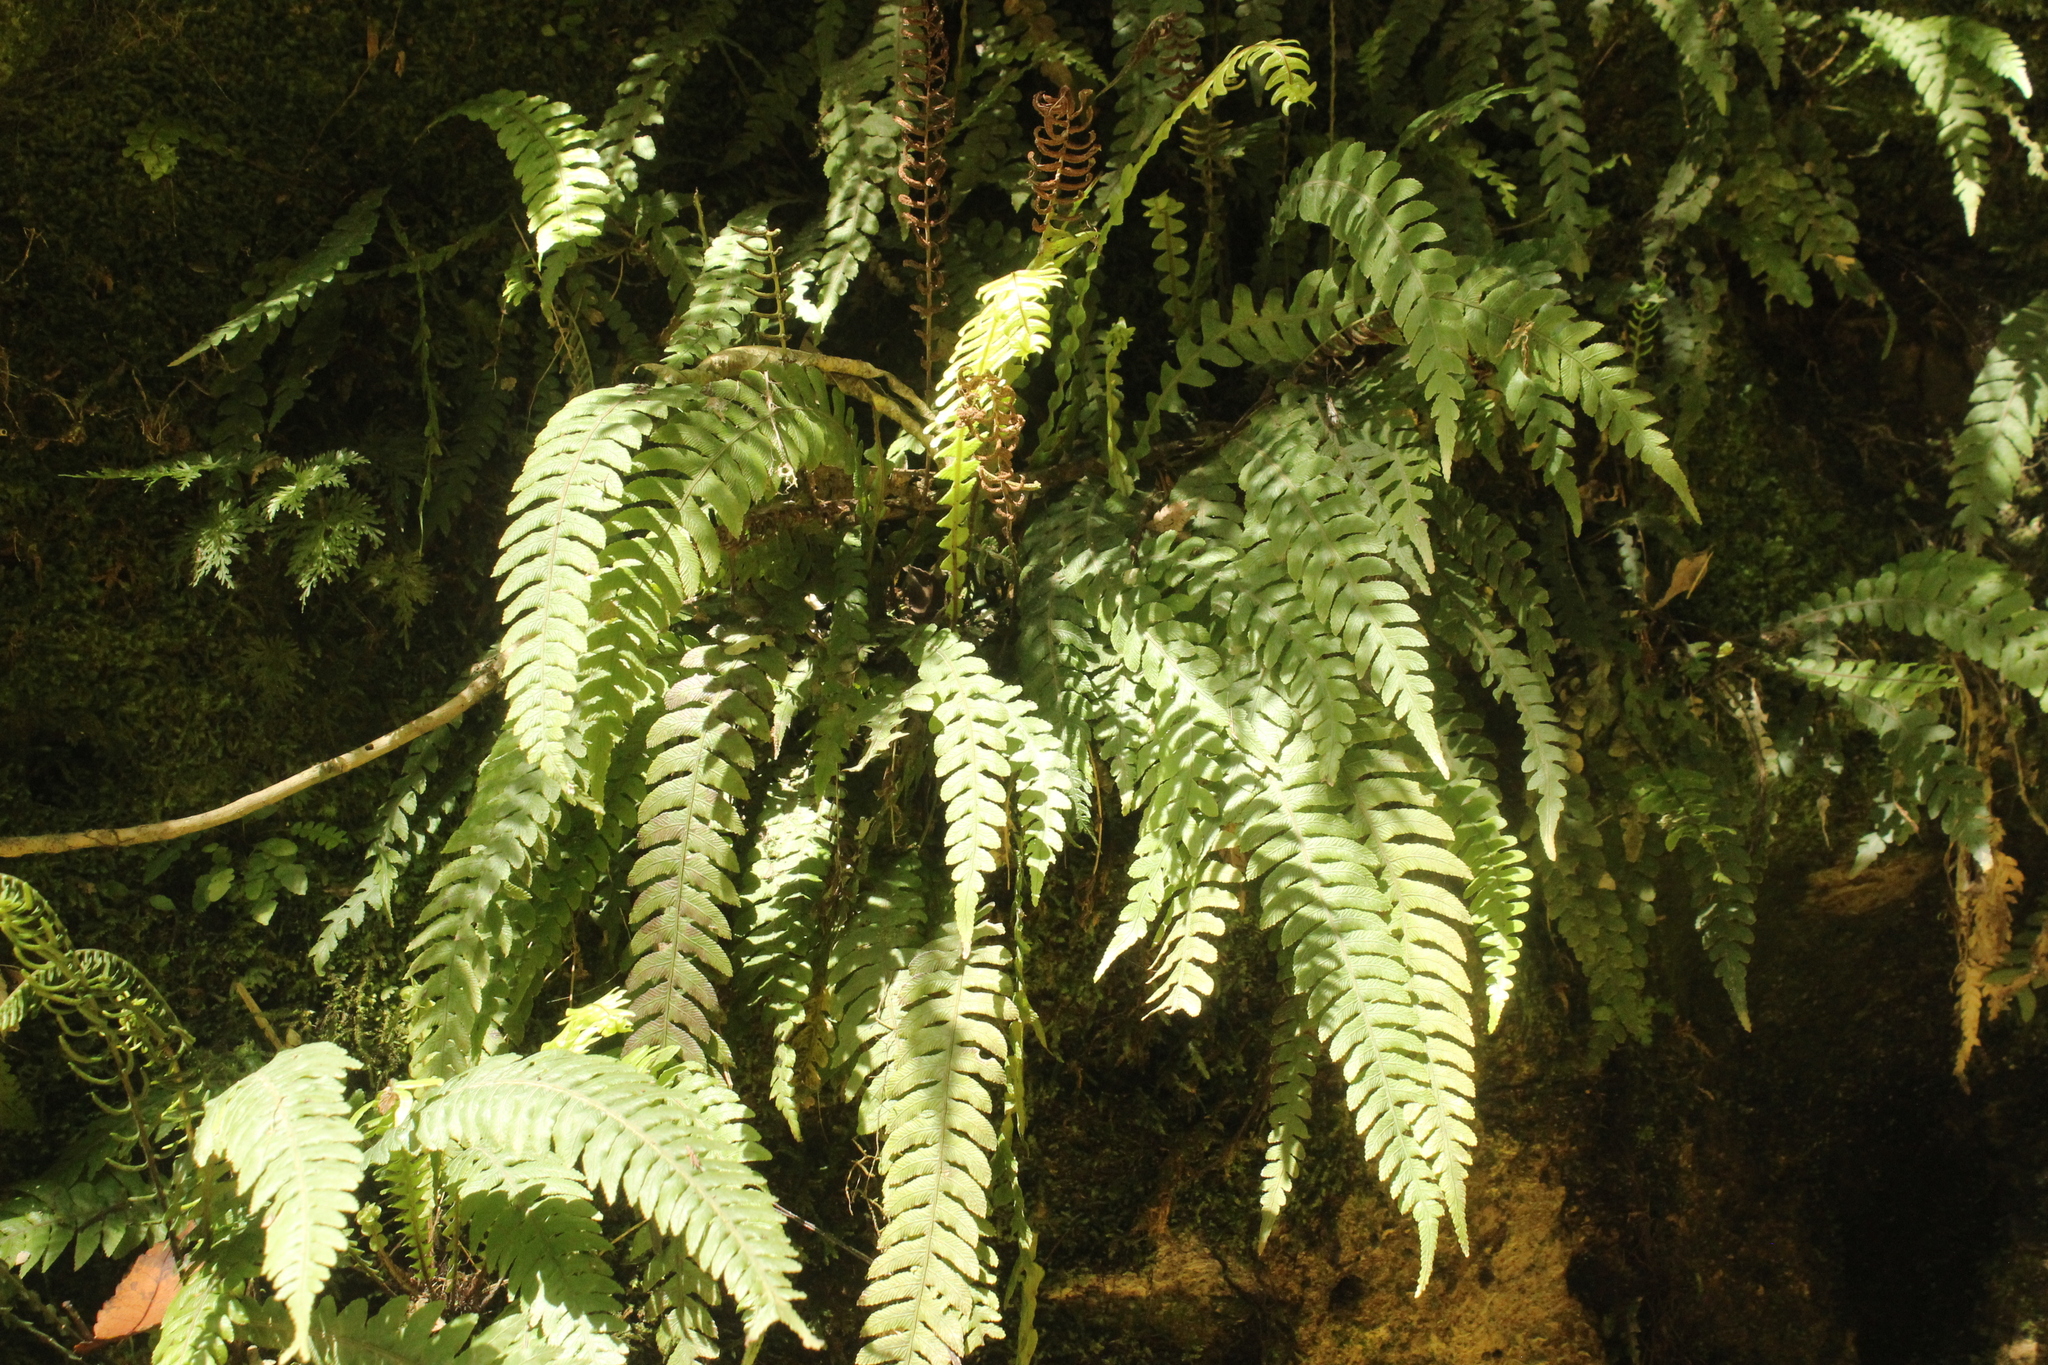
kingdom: Plantae
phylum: Tracheophyta
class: Polypodiopsida
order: Polypodiales
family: Blechnaceae
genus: Austroblechnum
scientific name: Austroblechnum lanceolatum
